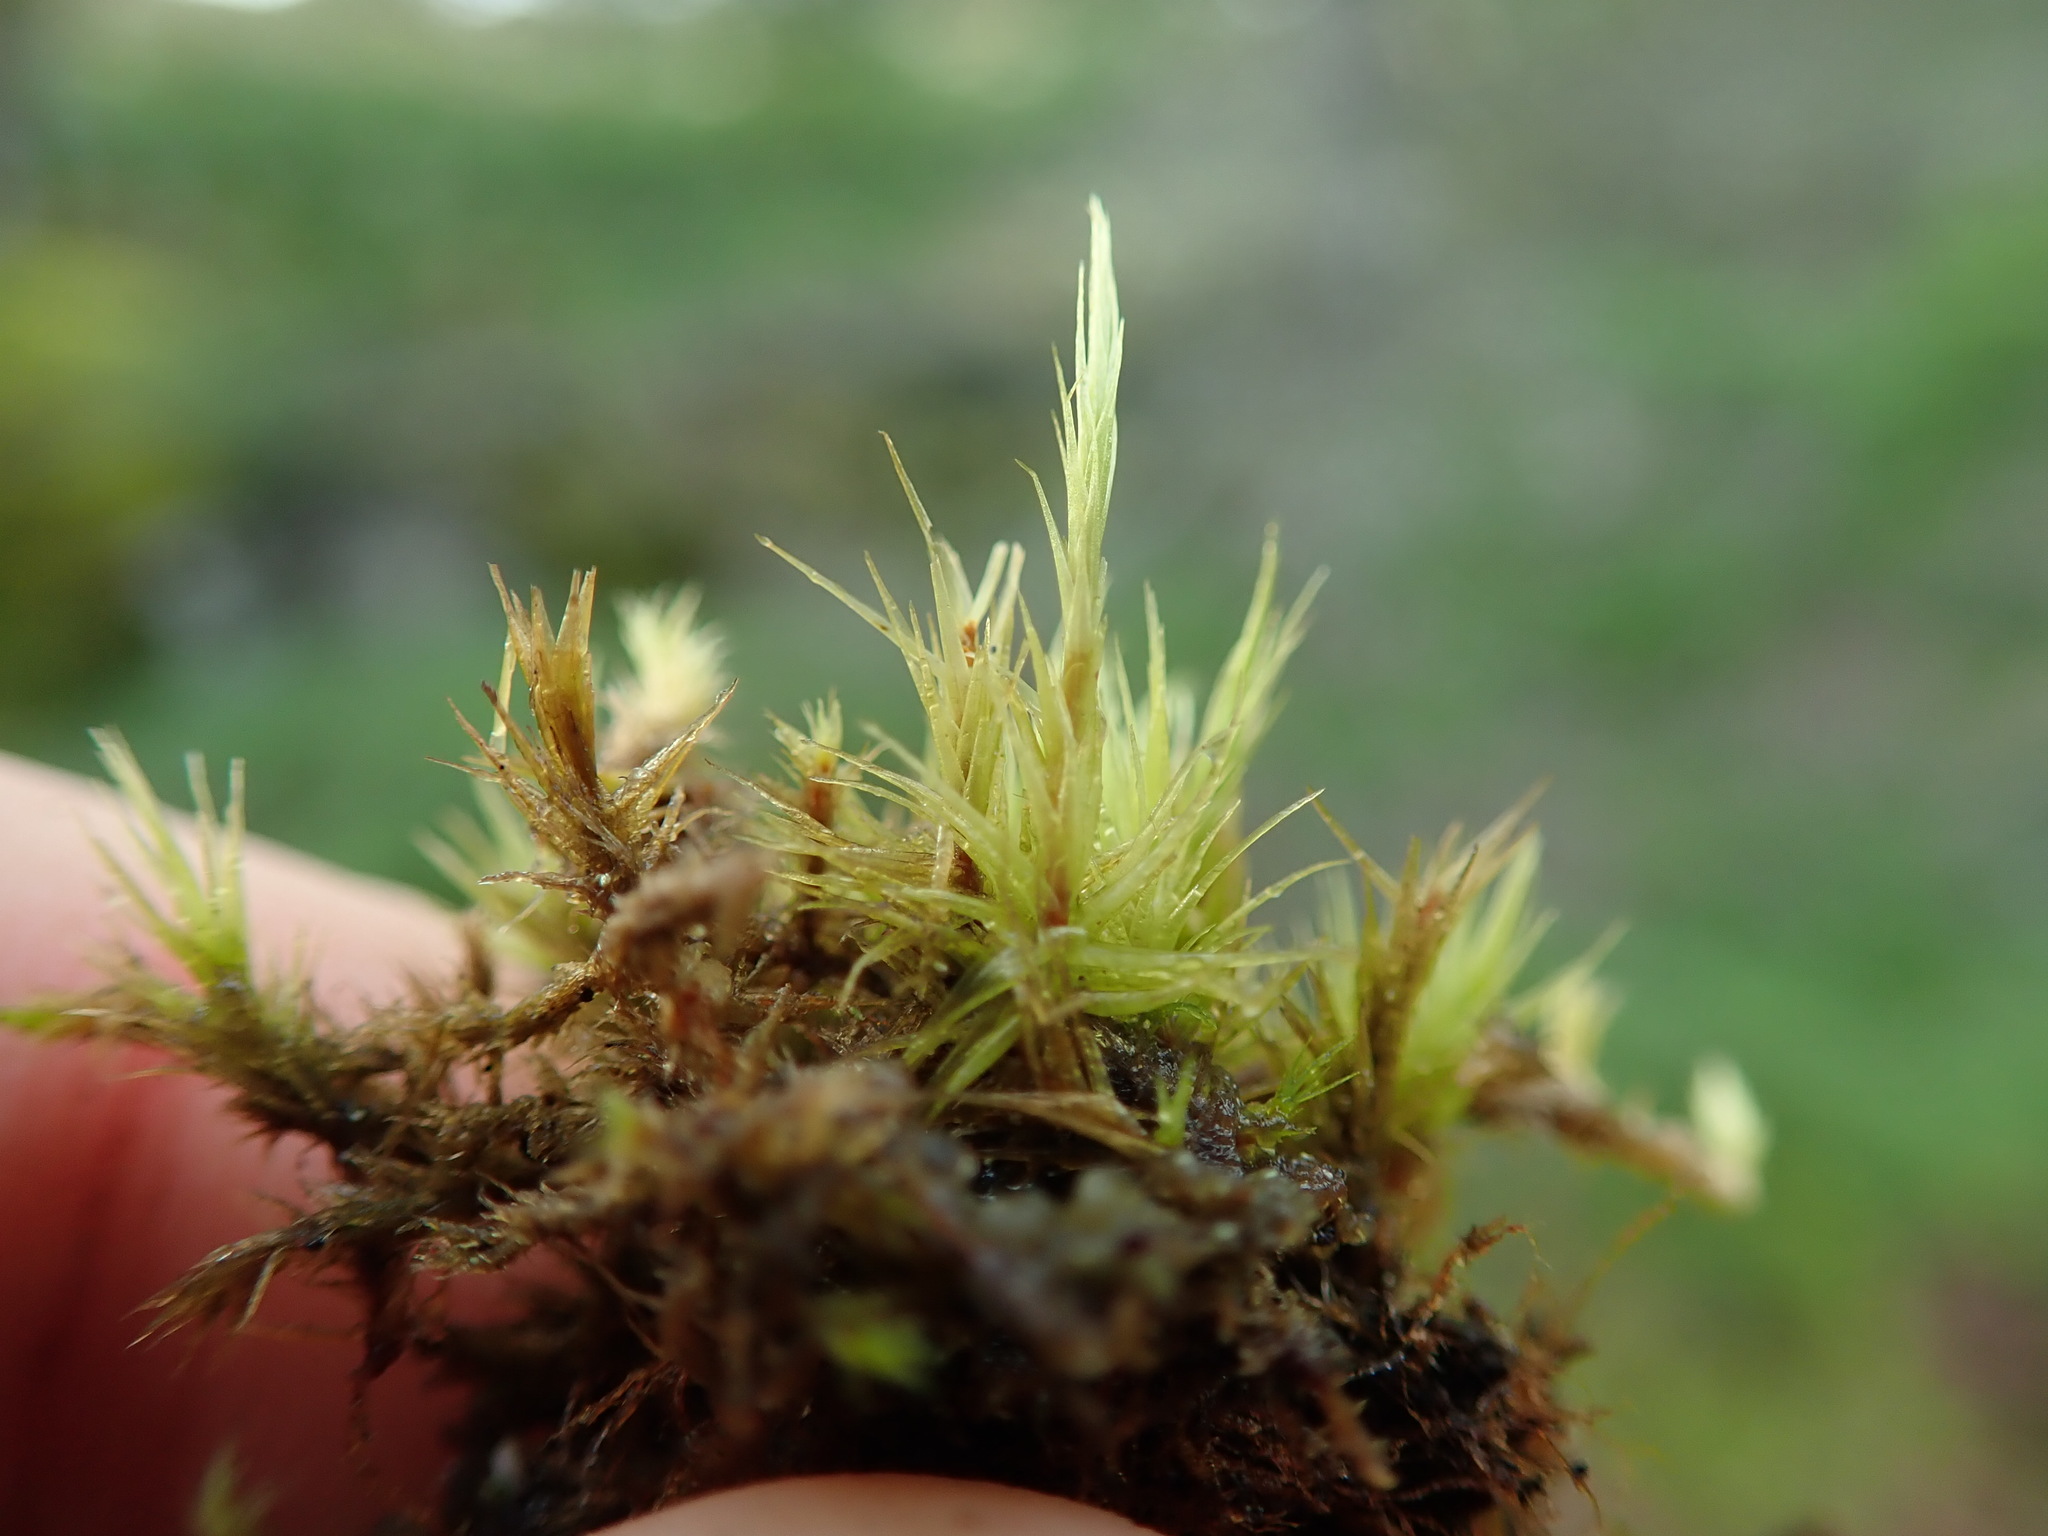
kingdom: Plantae
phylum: Bryophyta
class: Bryopsida
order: Dicranales
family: Dicranaceae
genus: Dicranum
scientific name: Dicranum howellii
